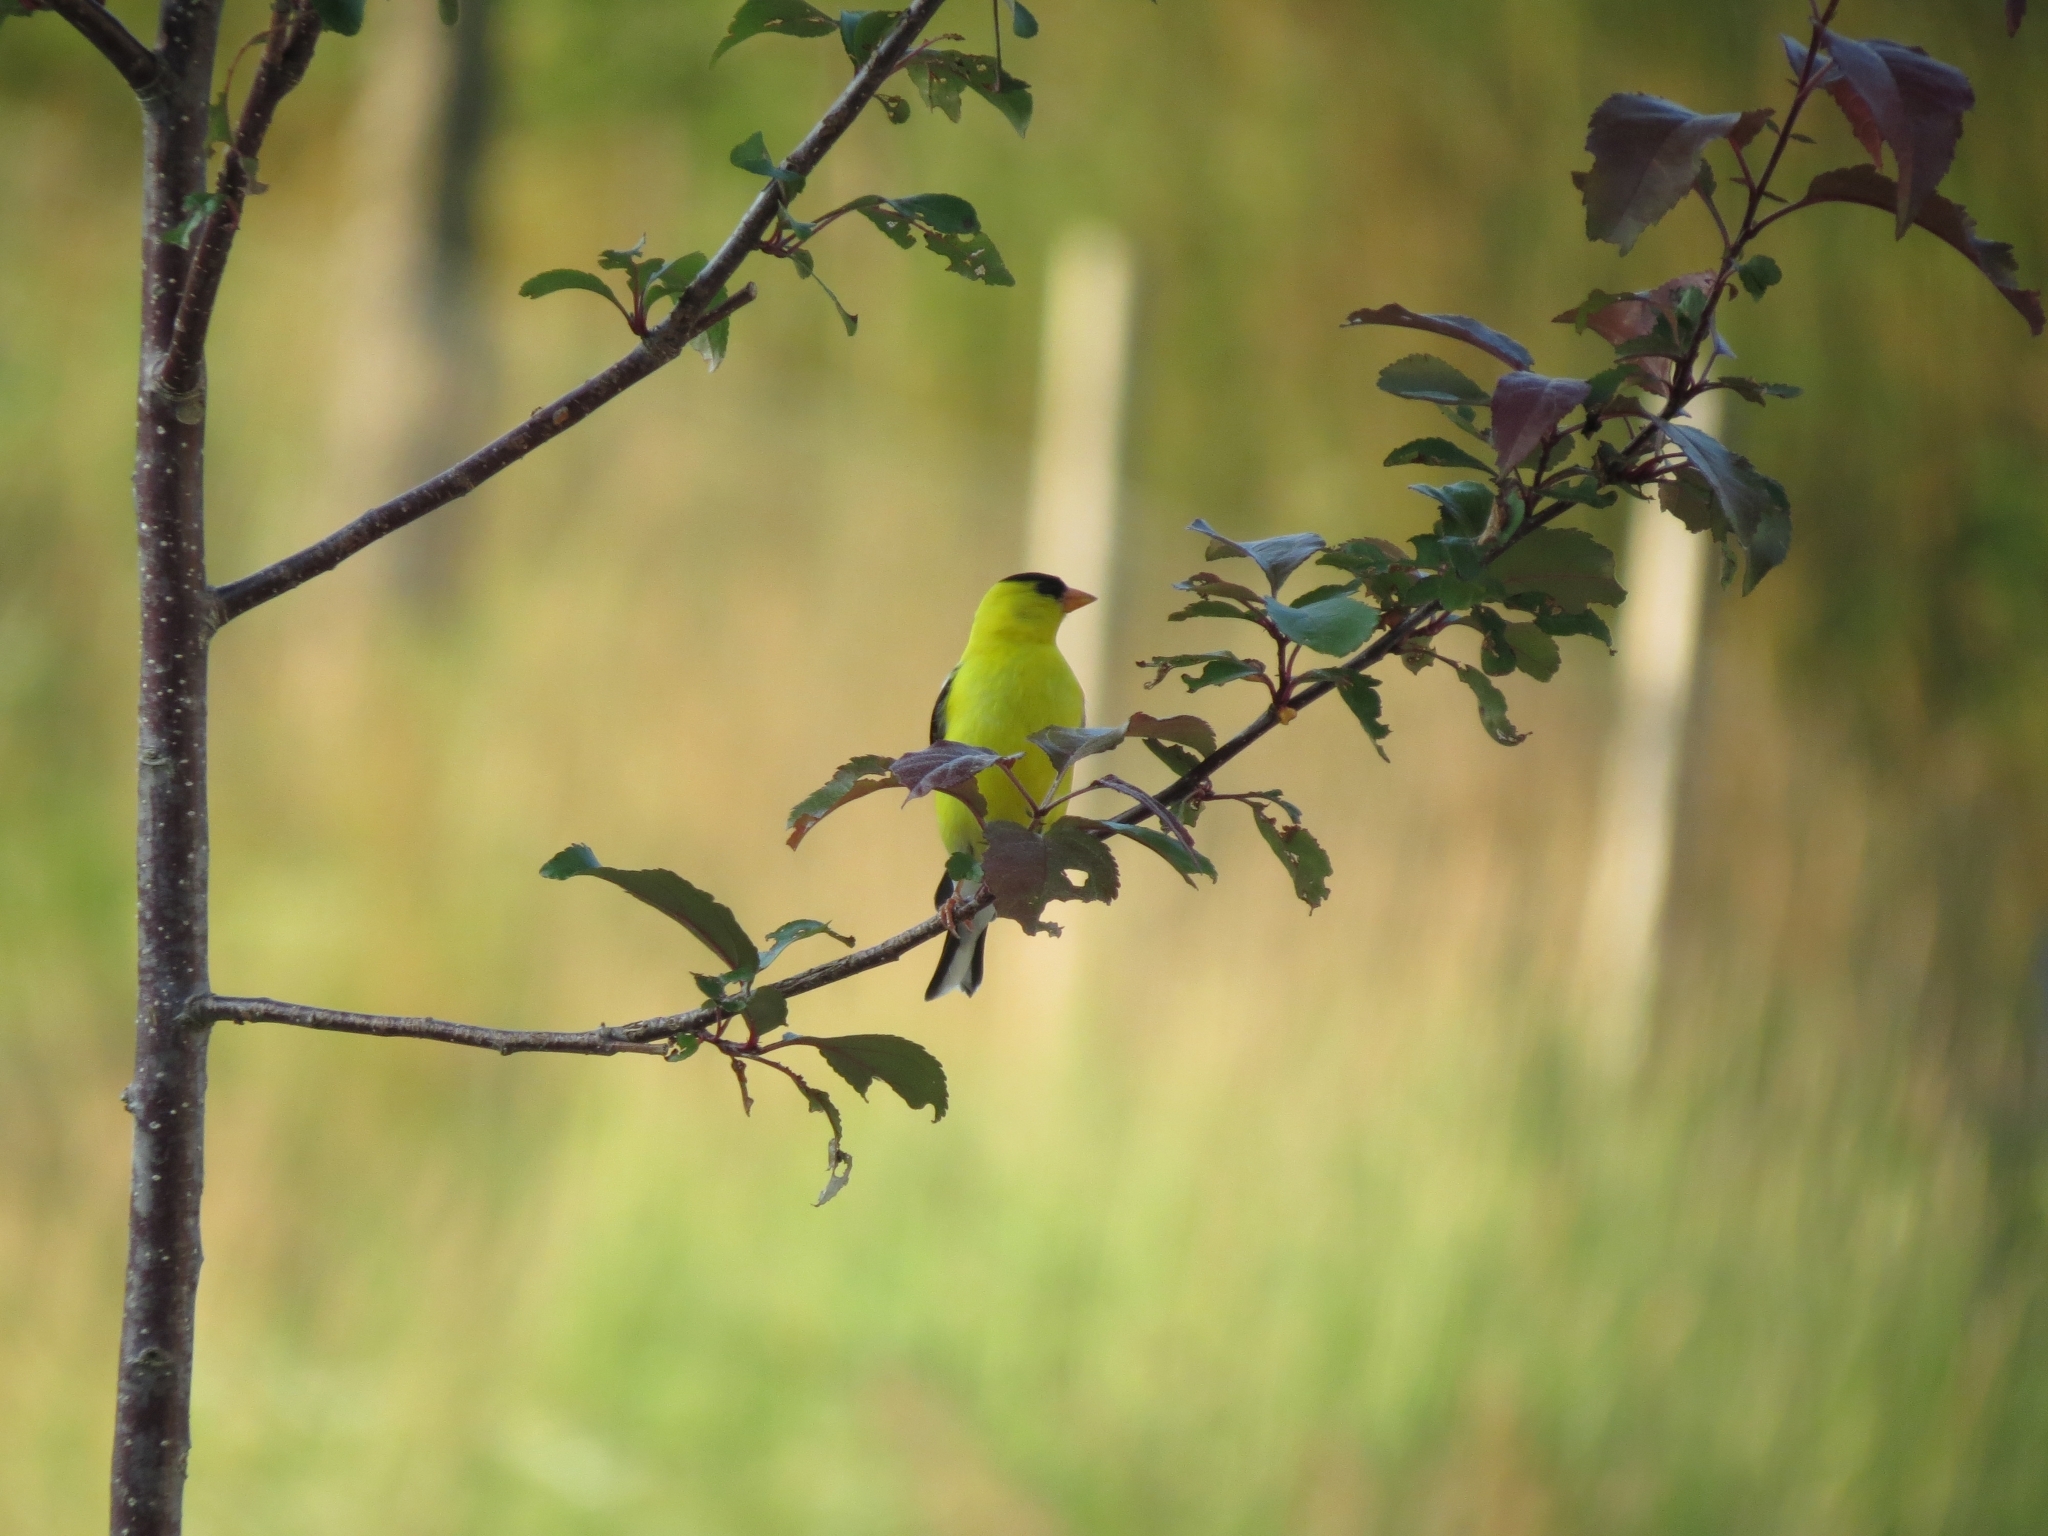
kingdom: Animalia
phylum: Chordata
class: Aves
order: Passeriformes
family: Fringillidae
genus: Spinus
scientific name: Spinus tristis
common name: American goldfinch
